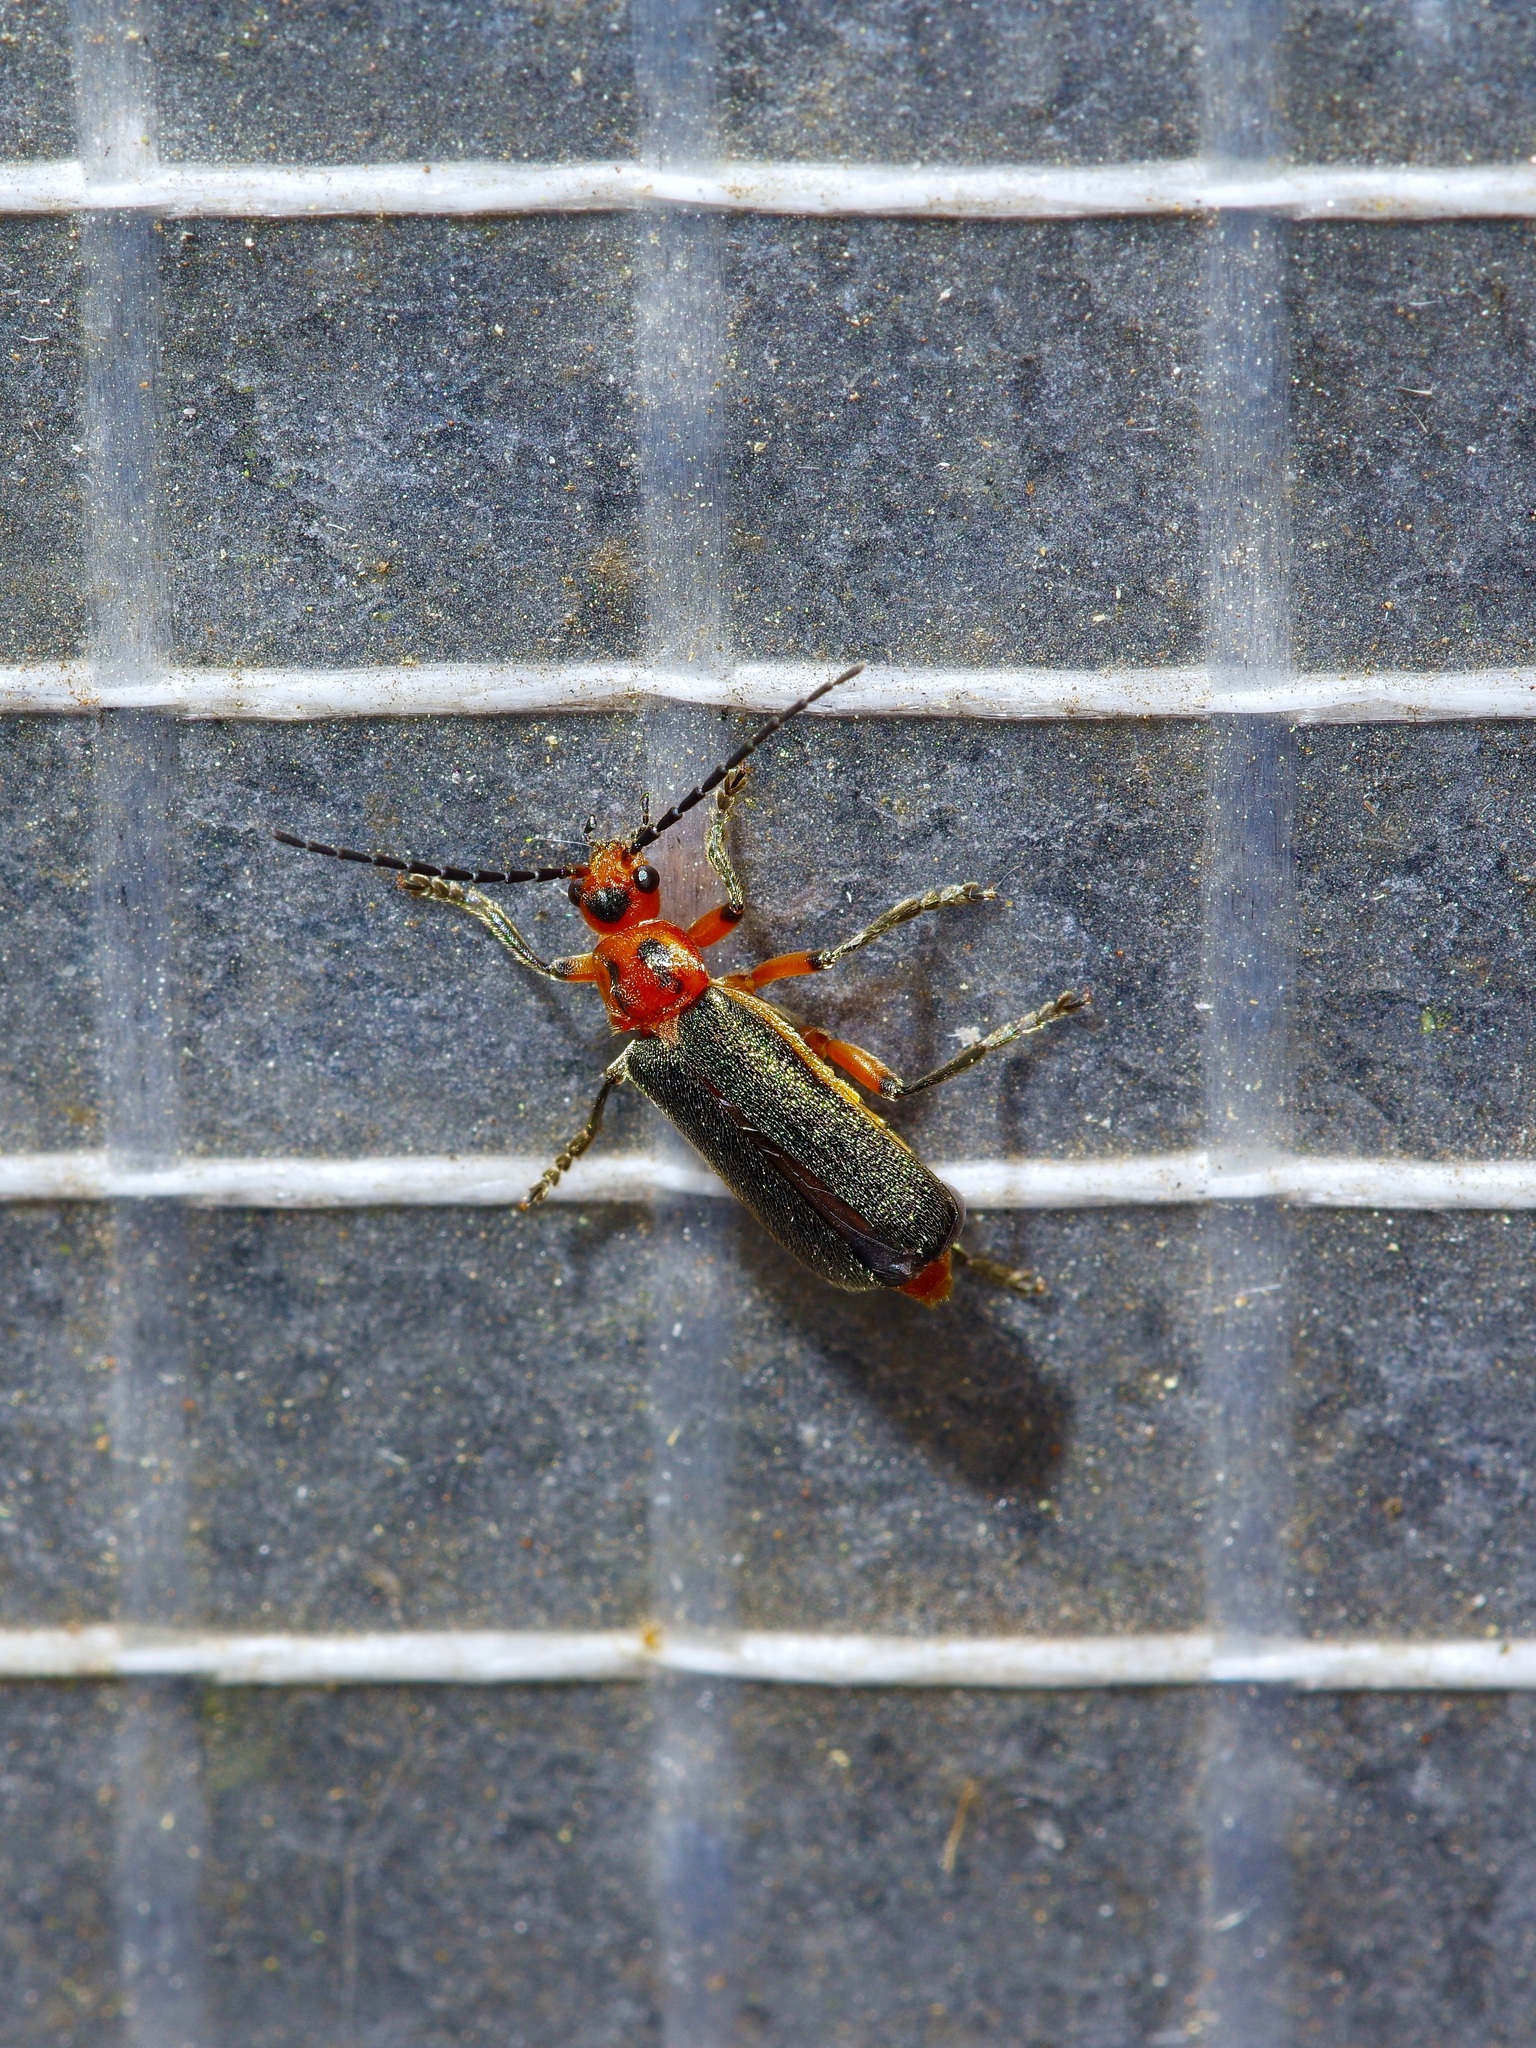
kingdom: Animalia
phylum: Arthropoda
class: Insecta
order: Coleoptera
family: Cantharidae
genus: Atalantycha
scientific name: Atalantycha bilineata
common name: Two-lined leatherwing
